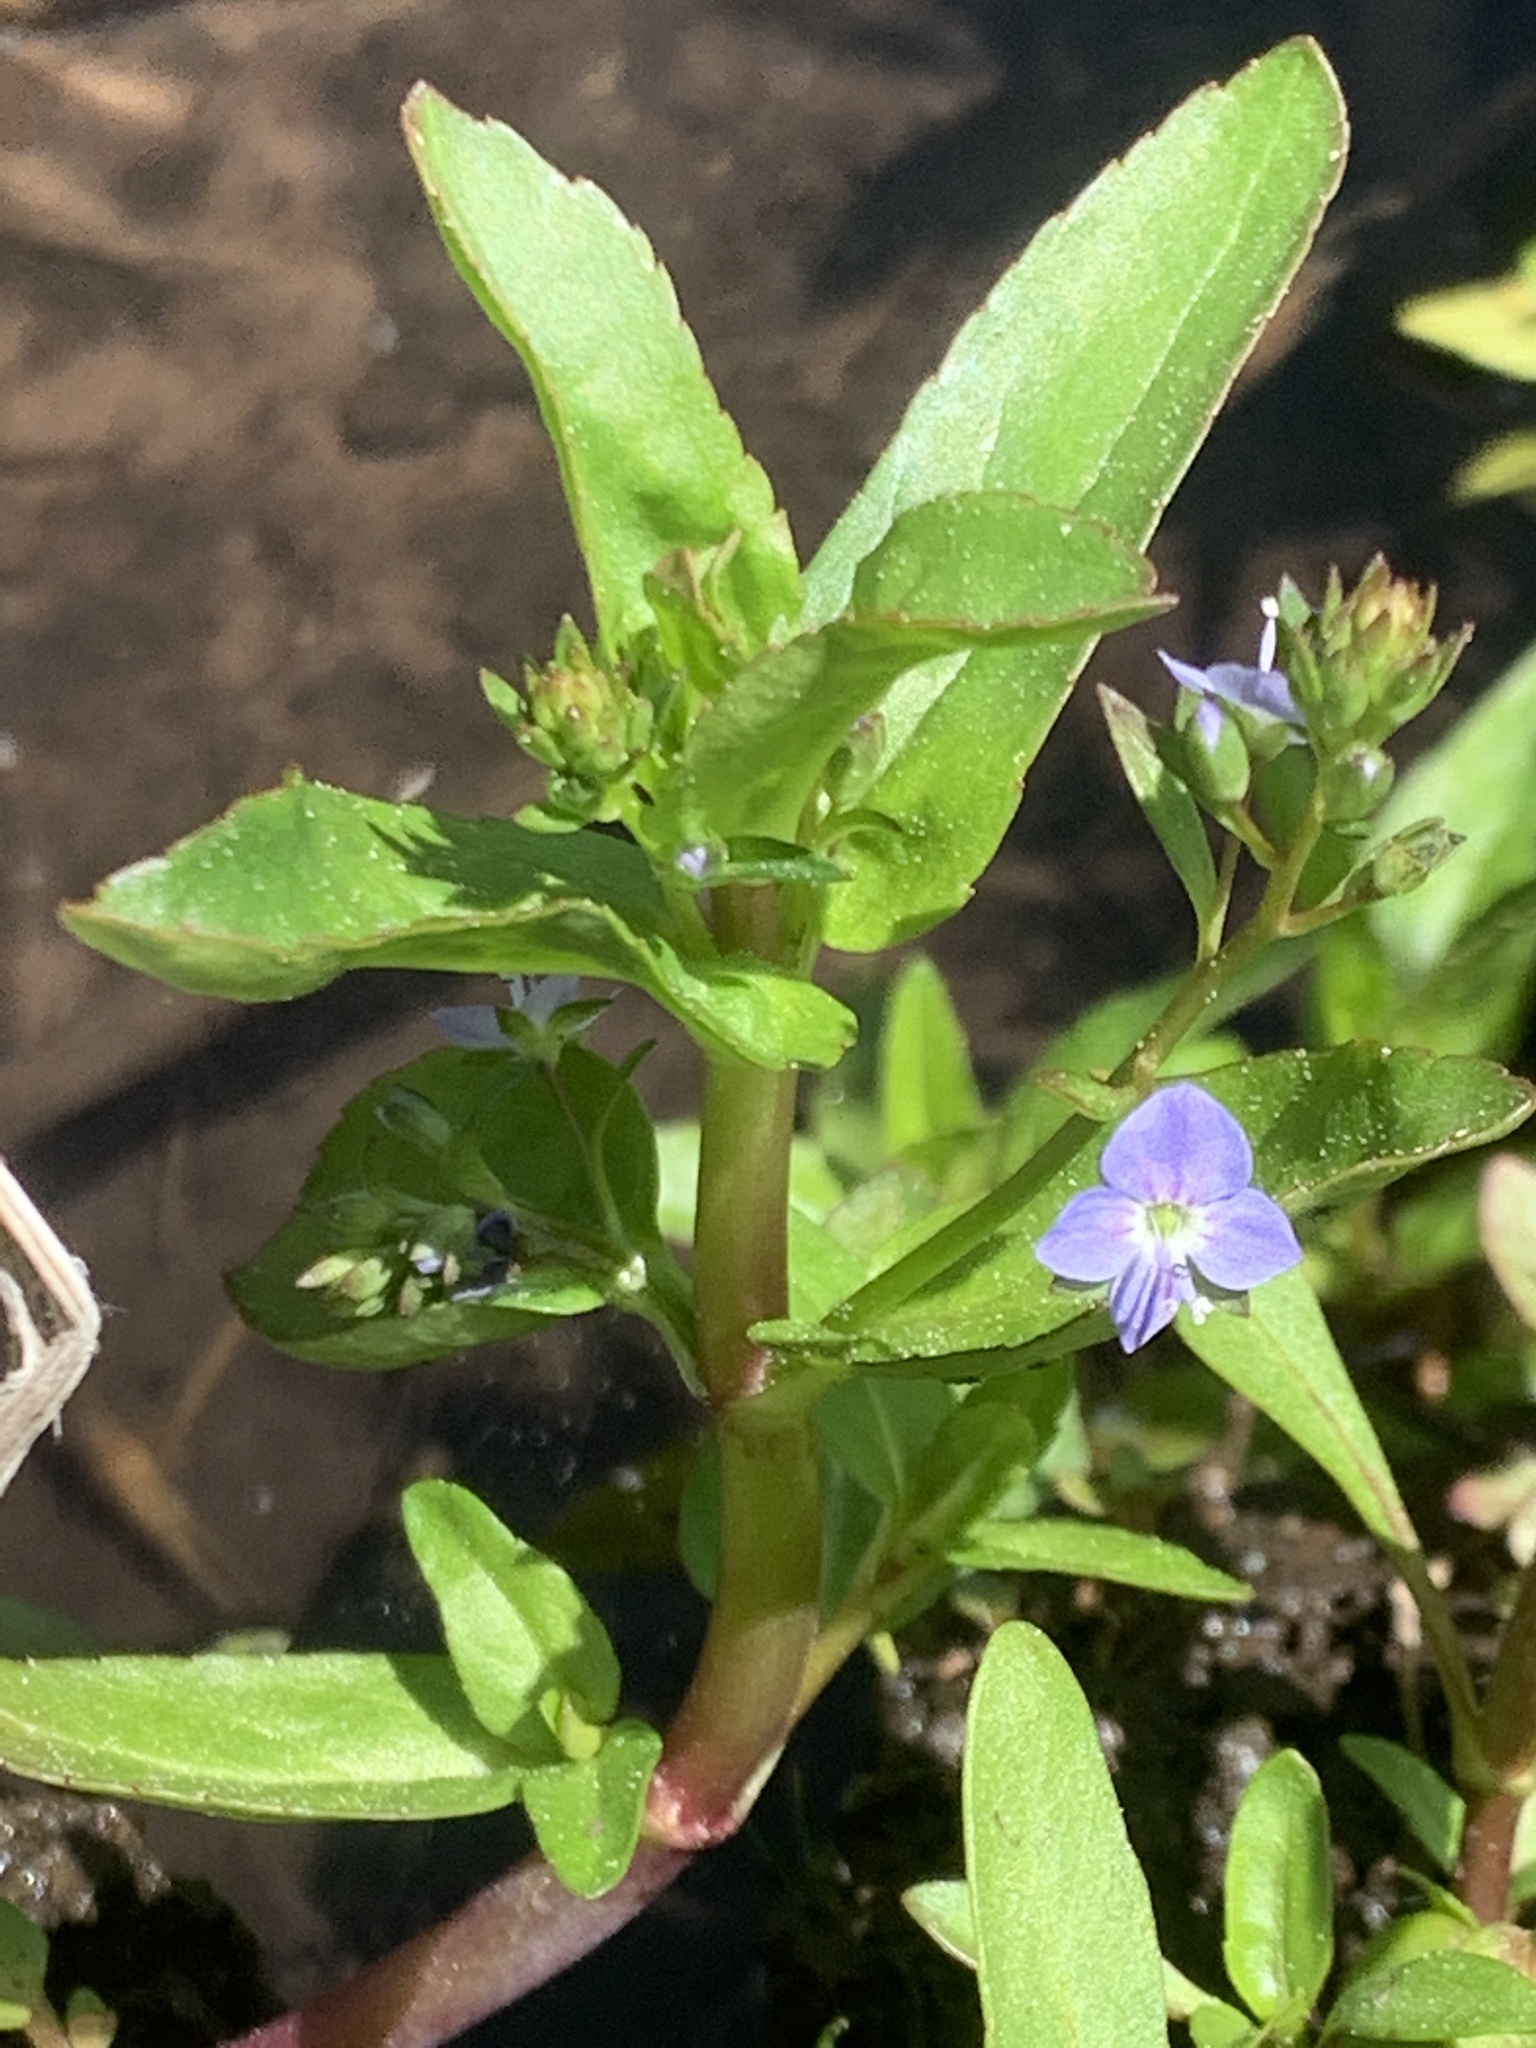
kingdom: Plantae
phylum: Tracheophyta
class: Magnoliopsida
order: Lamiales
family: Plantaginaceae
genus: Veronica
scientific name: Veronica americana
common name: American brooklime
